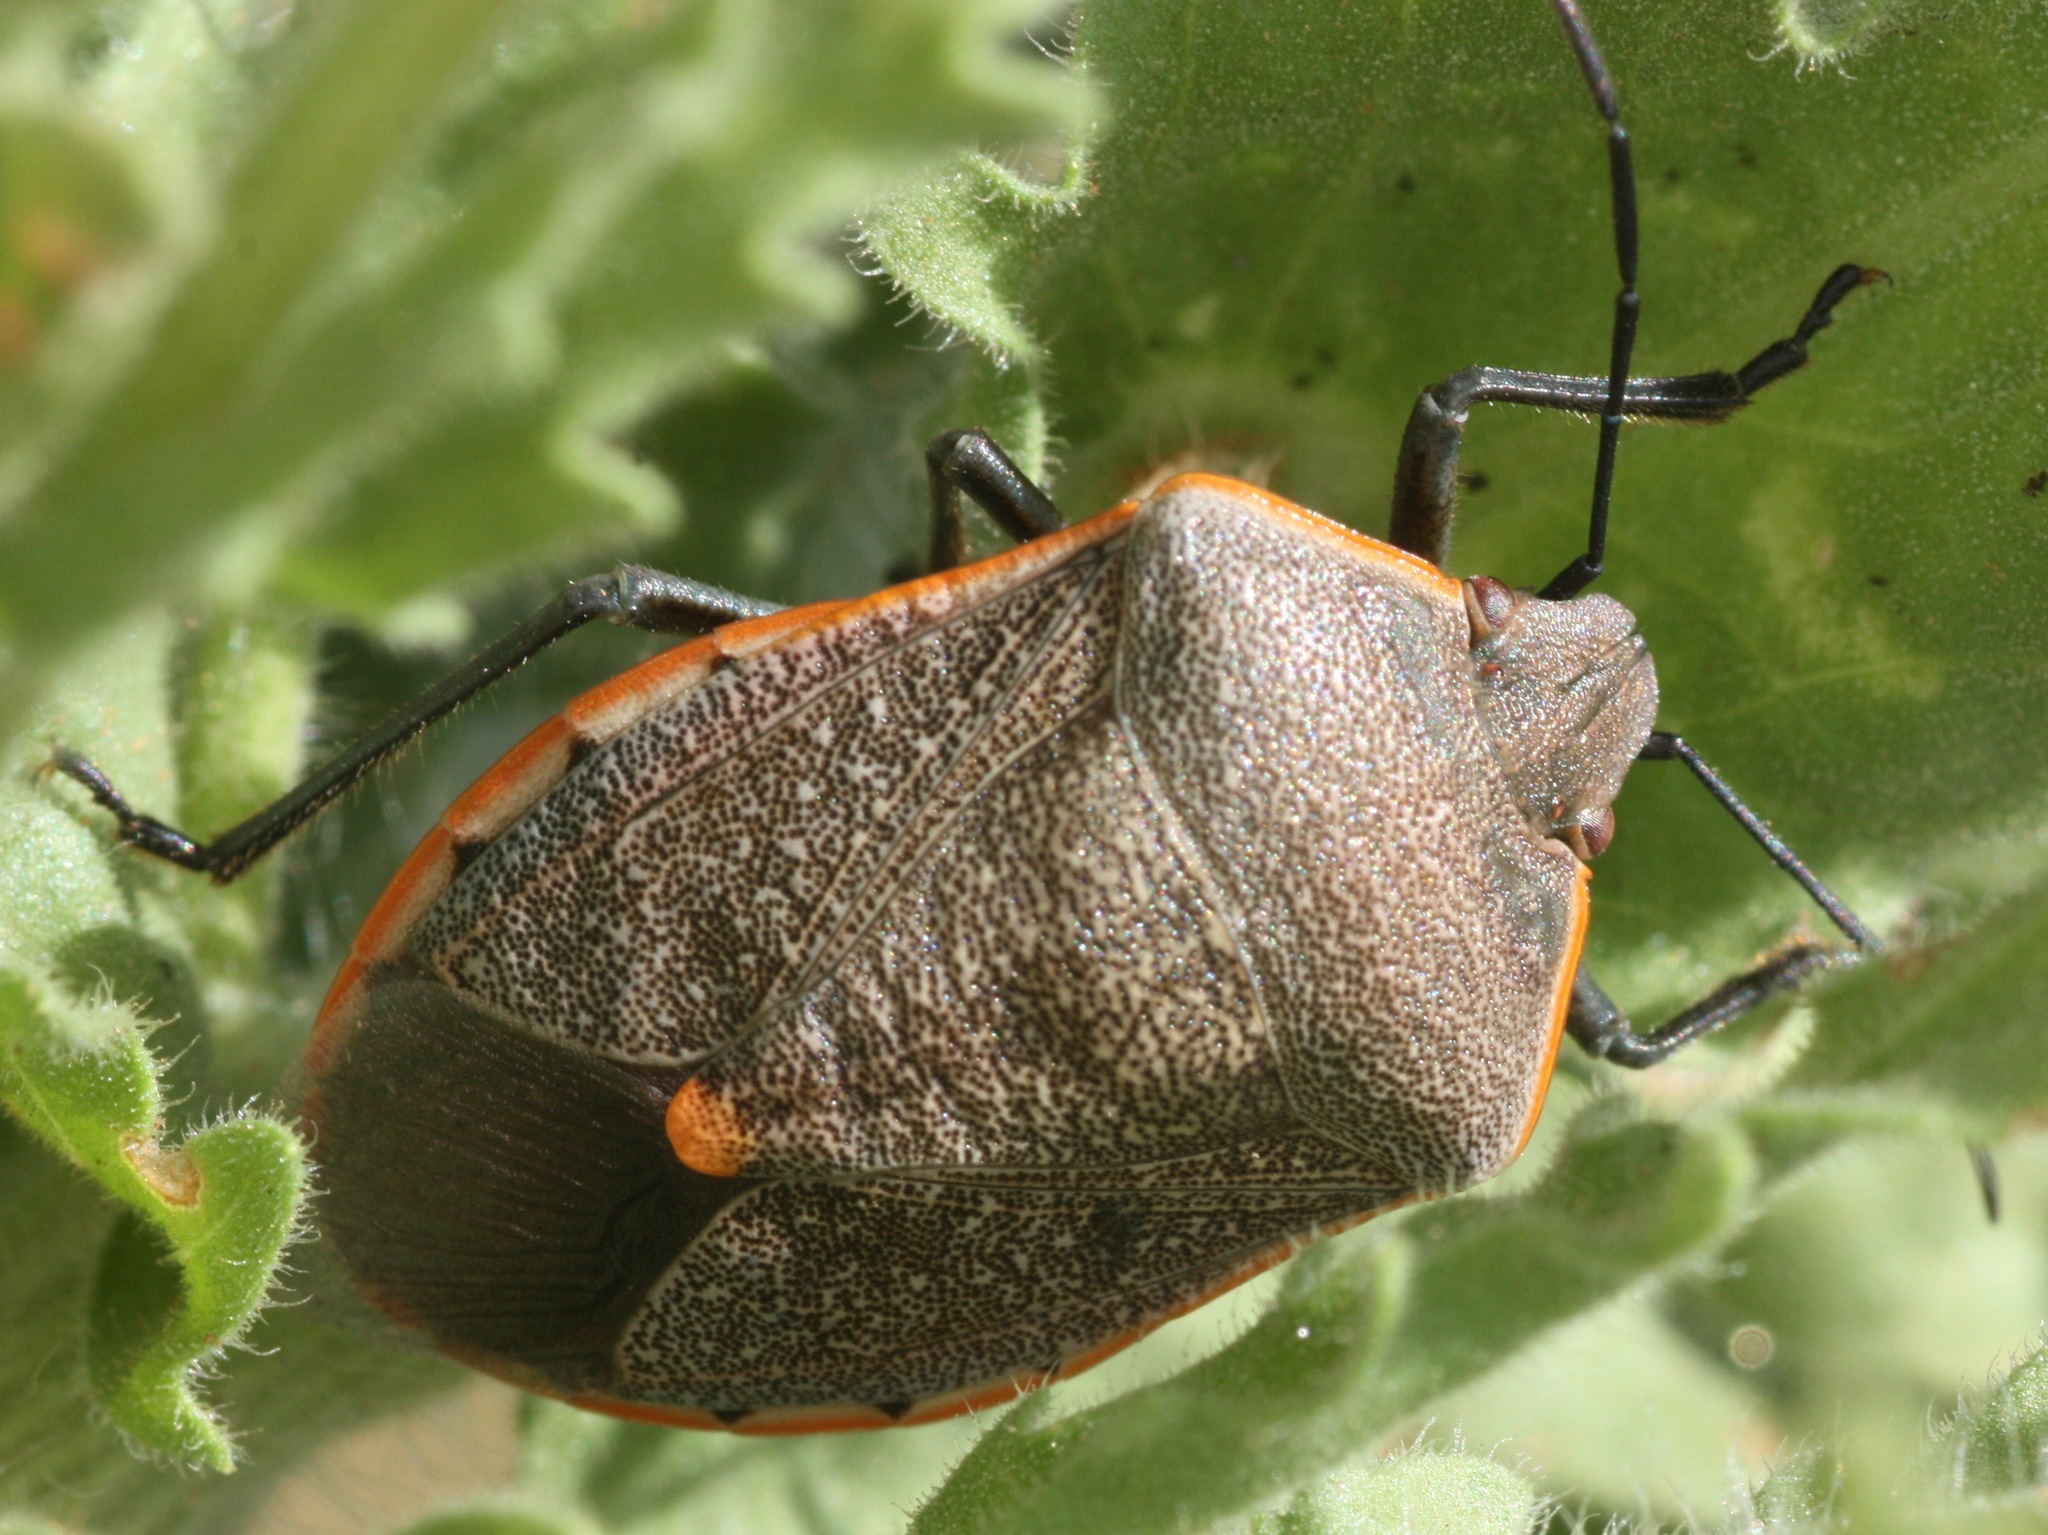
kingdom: Animalia
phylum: Arthropoda
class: Insecta
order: Hemiptera
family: Pentatomidae
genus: Chlorochroa
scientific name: Chlorochroa ligata
